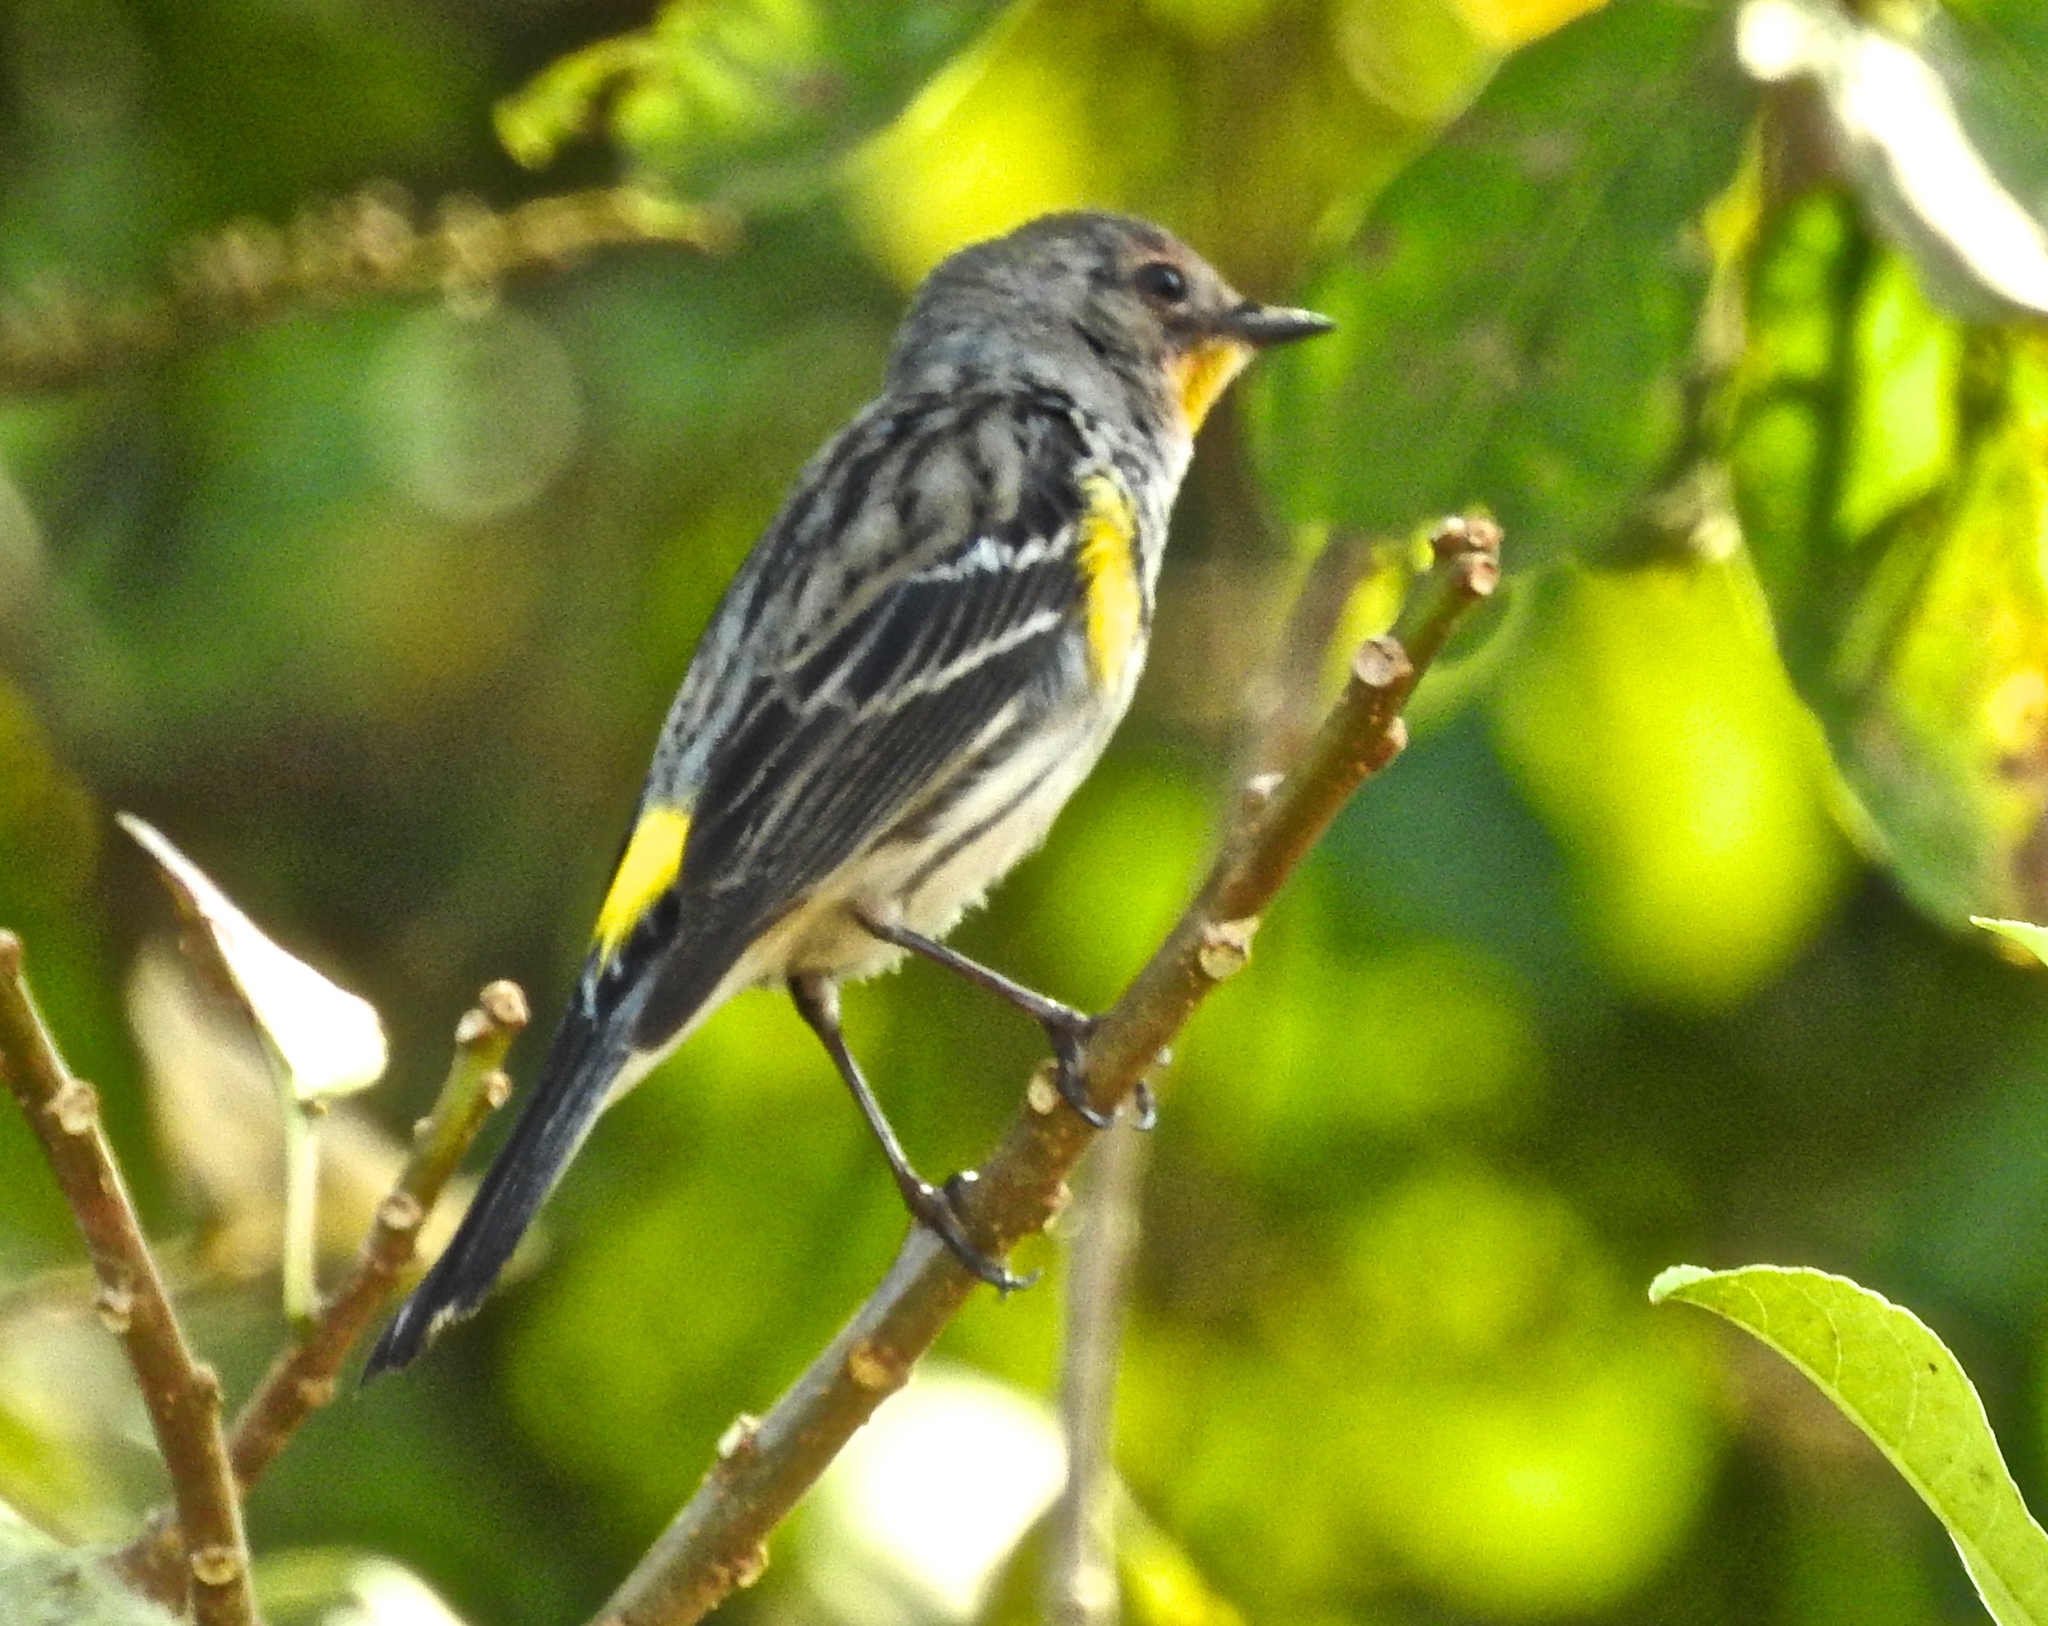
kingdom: Animalia
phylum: Chordata
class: Aves
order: Passeriformes
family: Parulidae
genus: Setophaga
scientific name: Setophaga auduboni
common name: Audubon's warbler
